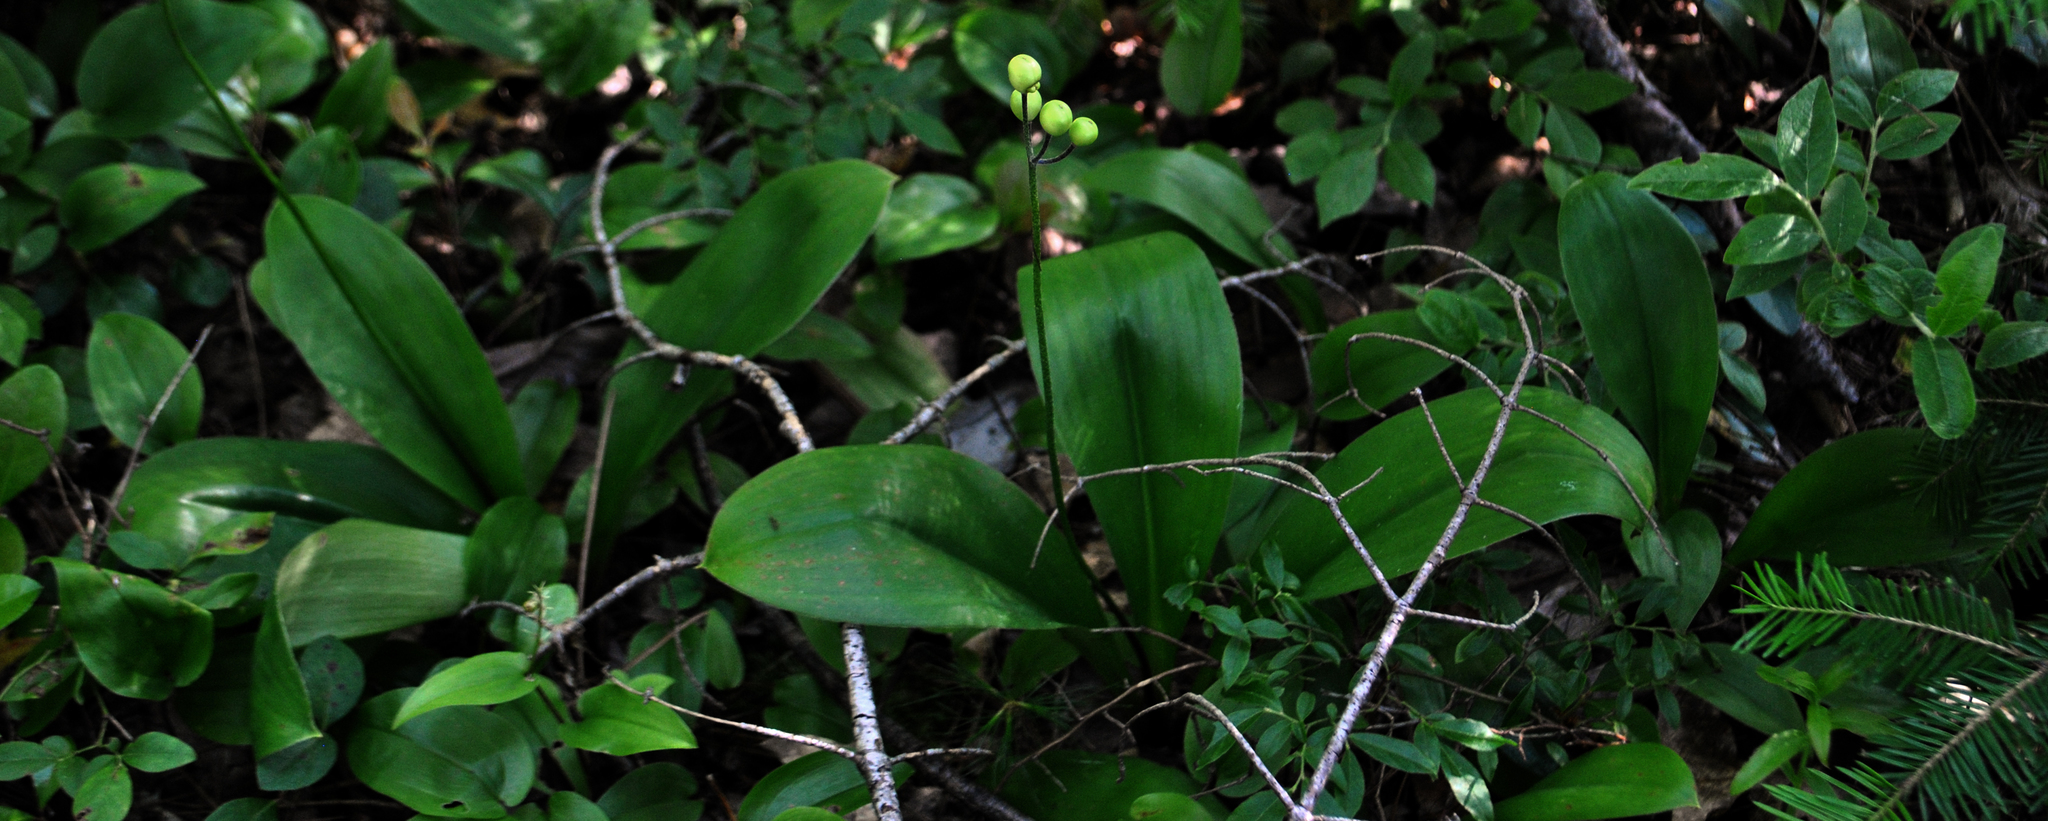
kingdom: Plantae
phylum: Tracheophyta
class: Liliopsida
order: Liliales
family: Liliaceae
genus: Clintonia
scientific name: Clintonia borealis
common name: Yellow clintonia
